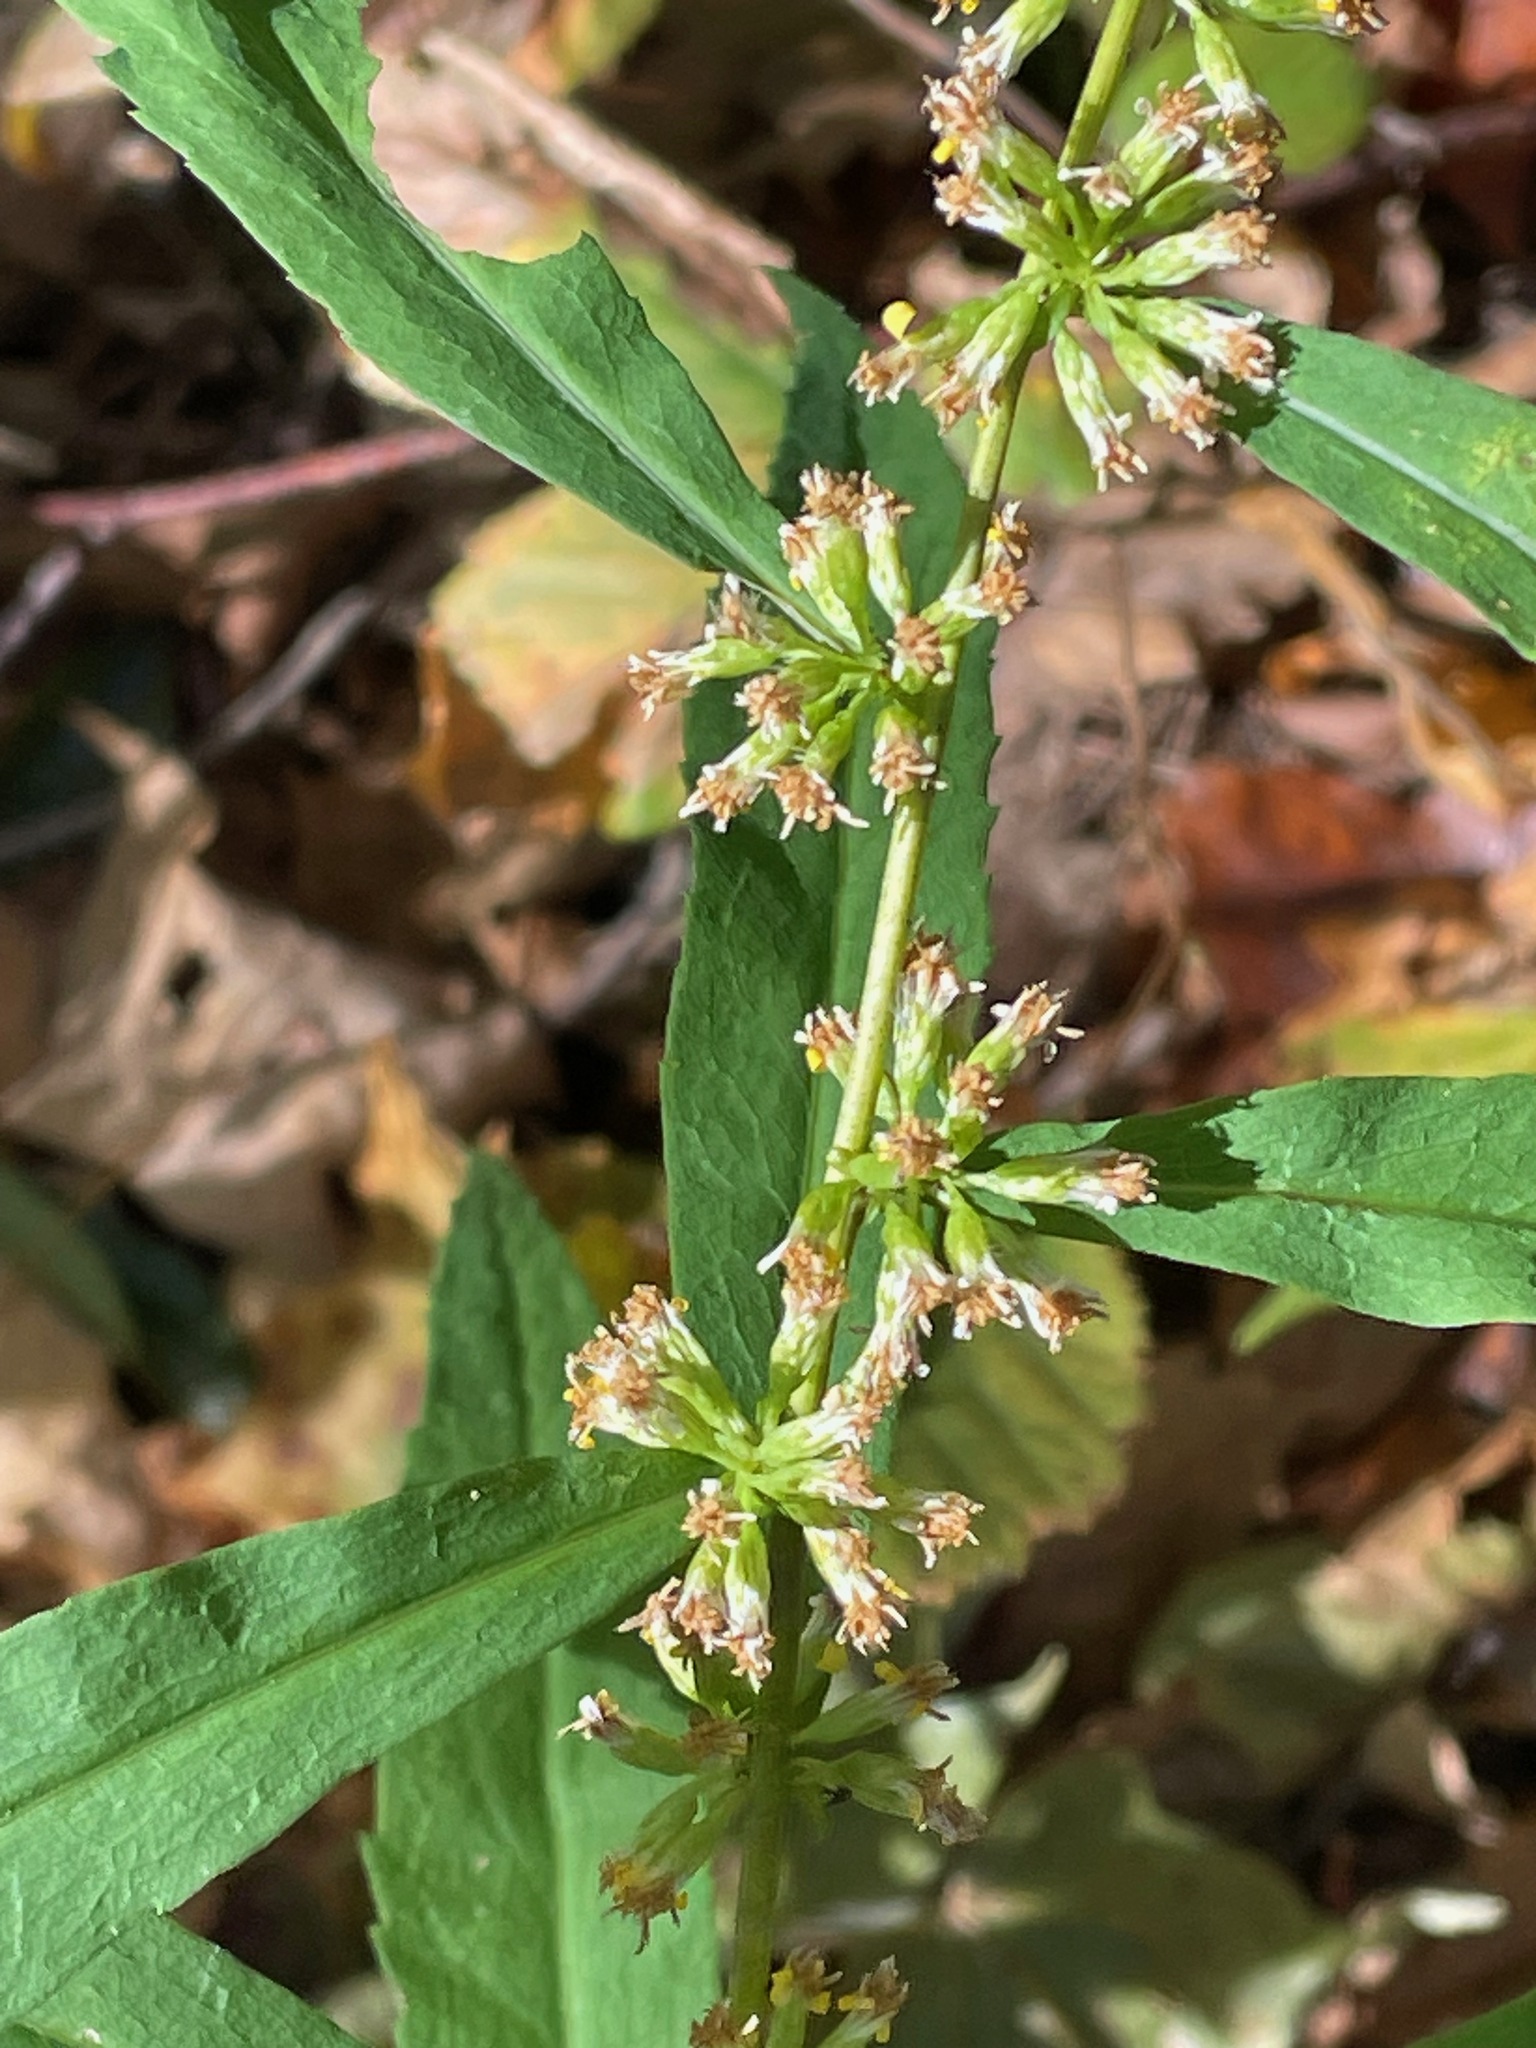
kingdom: Plantae
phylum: Tracheophyta
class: Magnoliopsida
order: Asterales
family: Asteraceae
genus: Solidago
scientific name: Solidago caesia
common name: Woodland goldenrod
